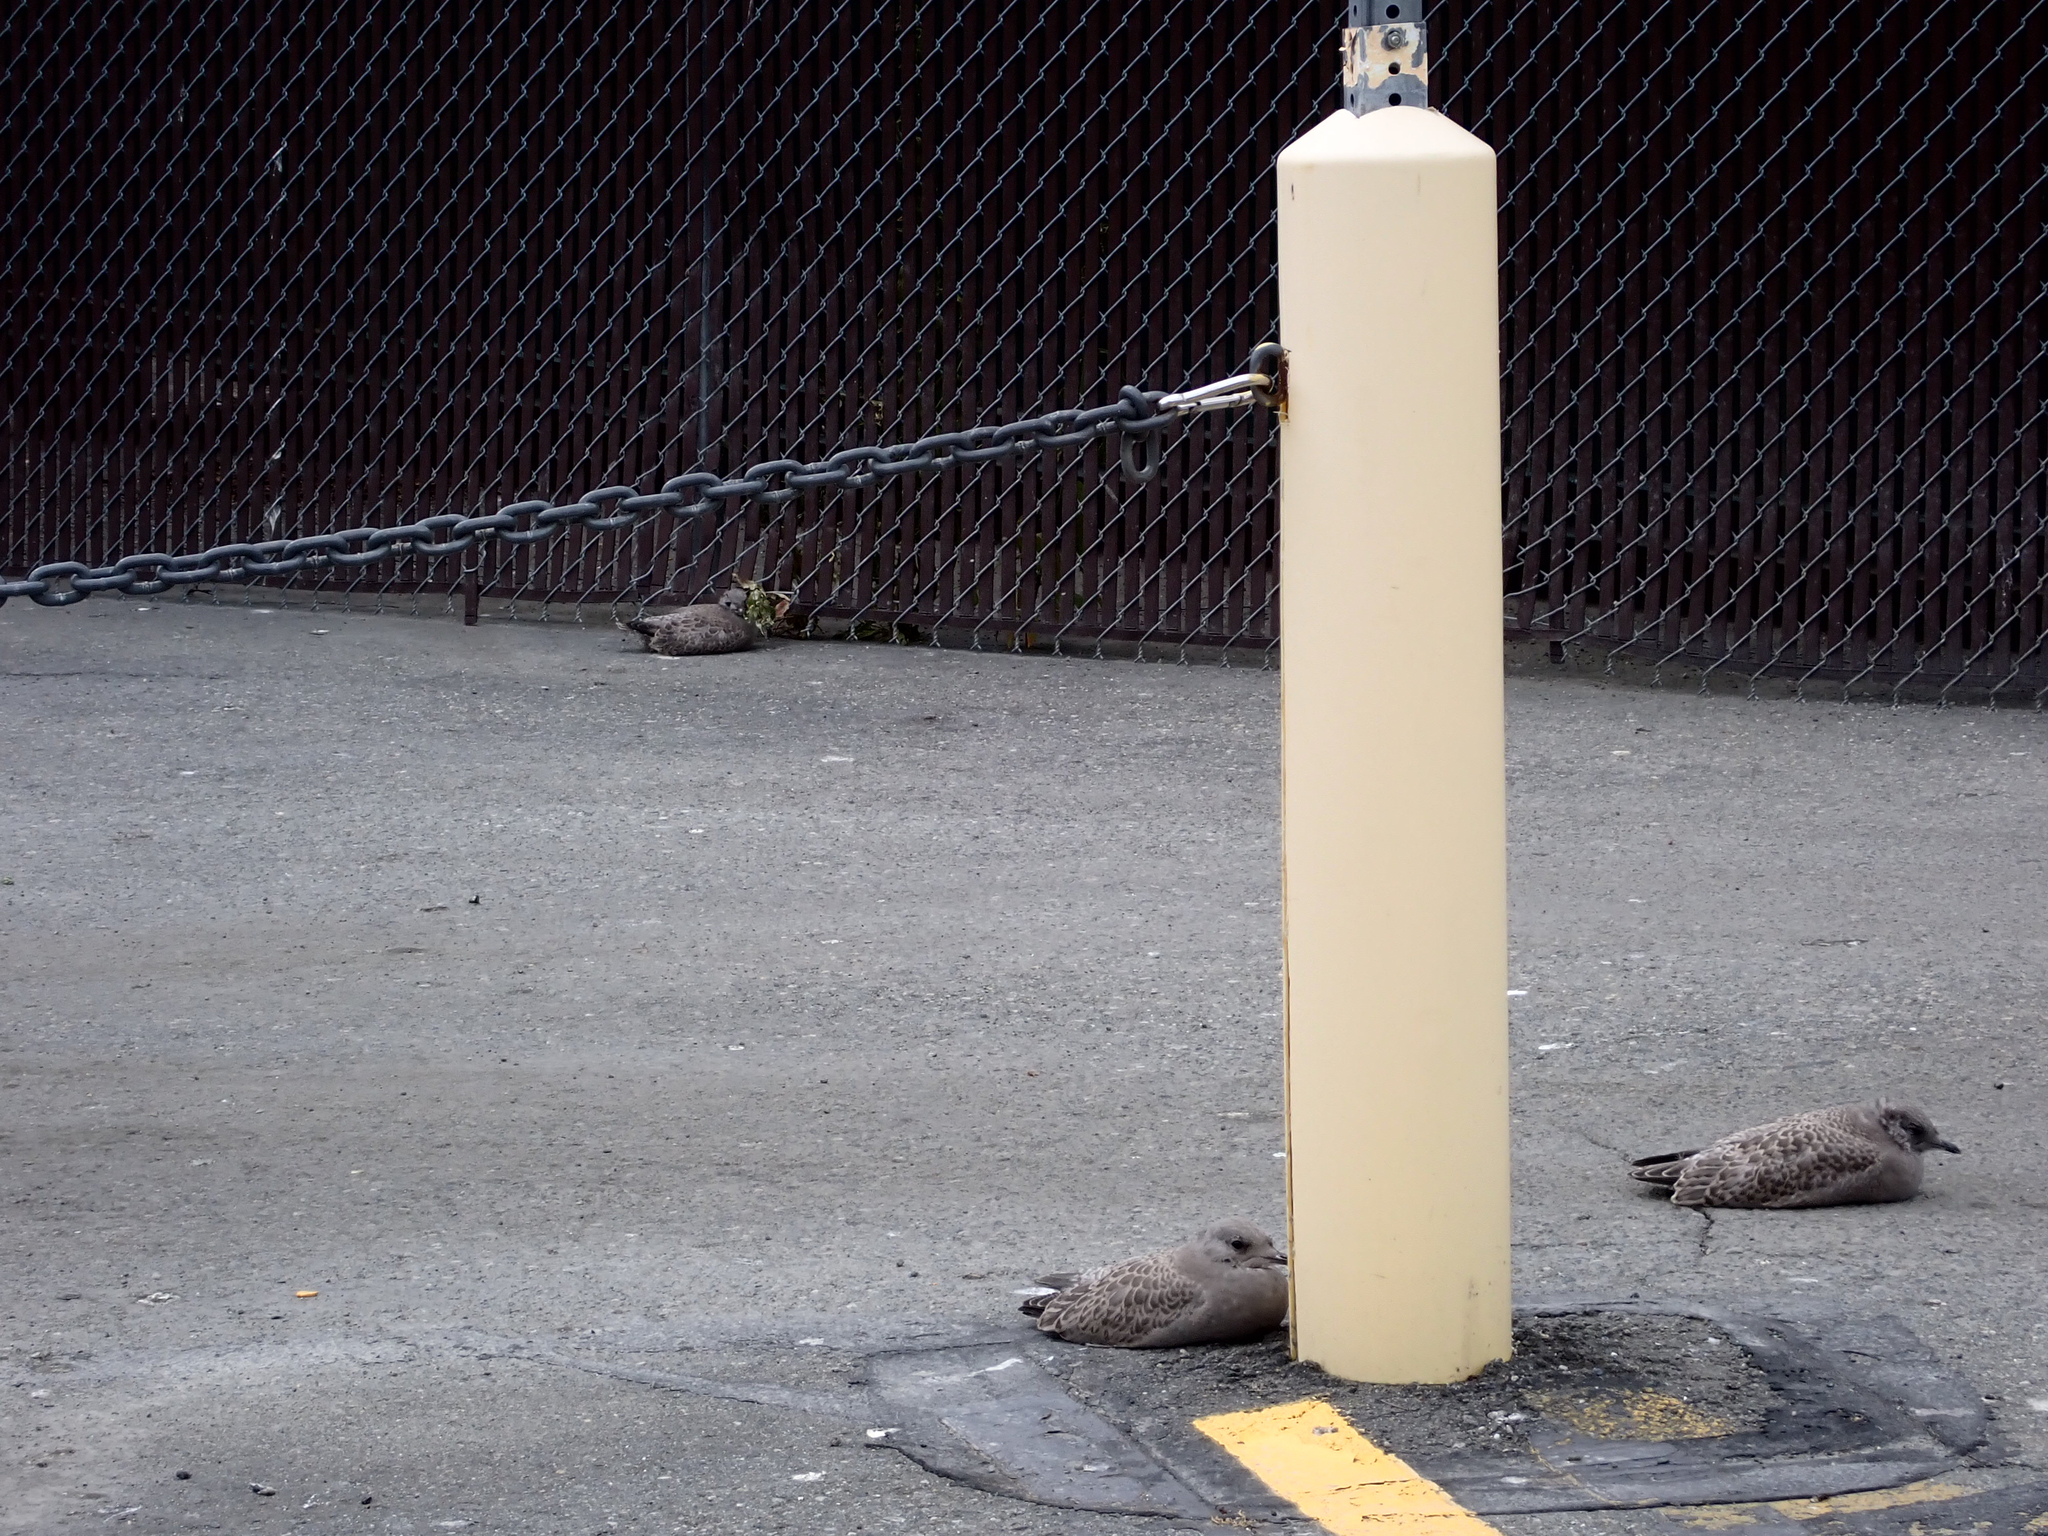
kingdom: Animalia
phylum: Chordata
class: Aves
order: Charadriiformes
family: Laridae
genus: Larus
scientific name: Larus brachyrhynchus
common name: Short-billed gull
